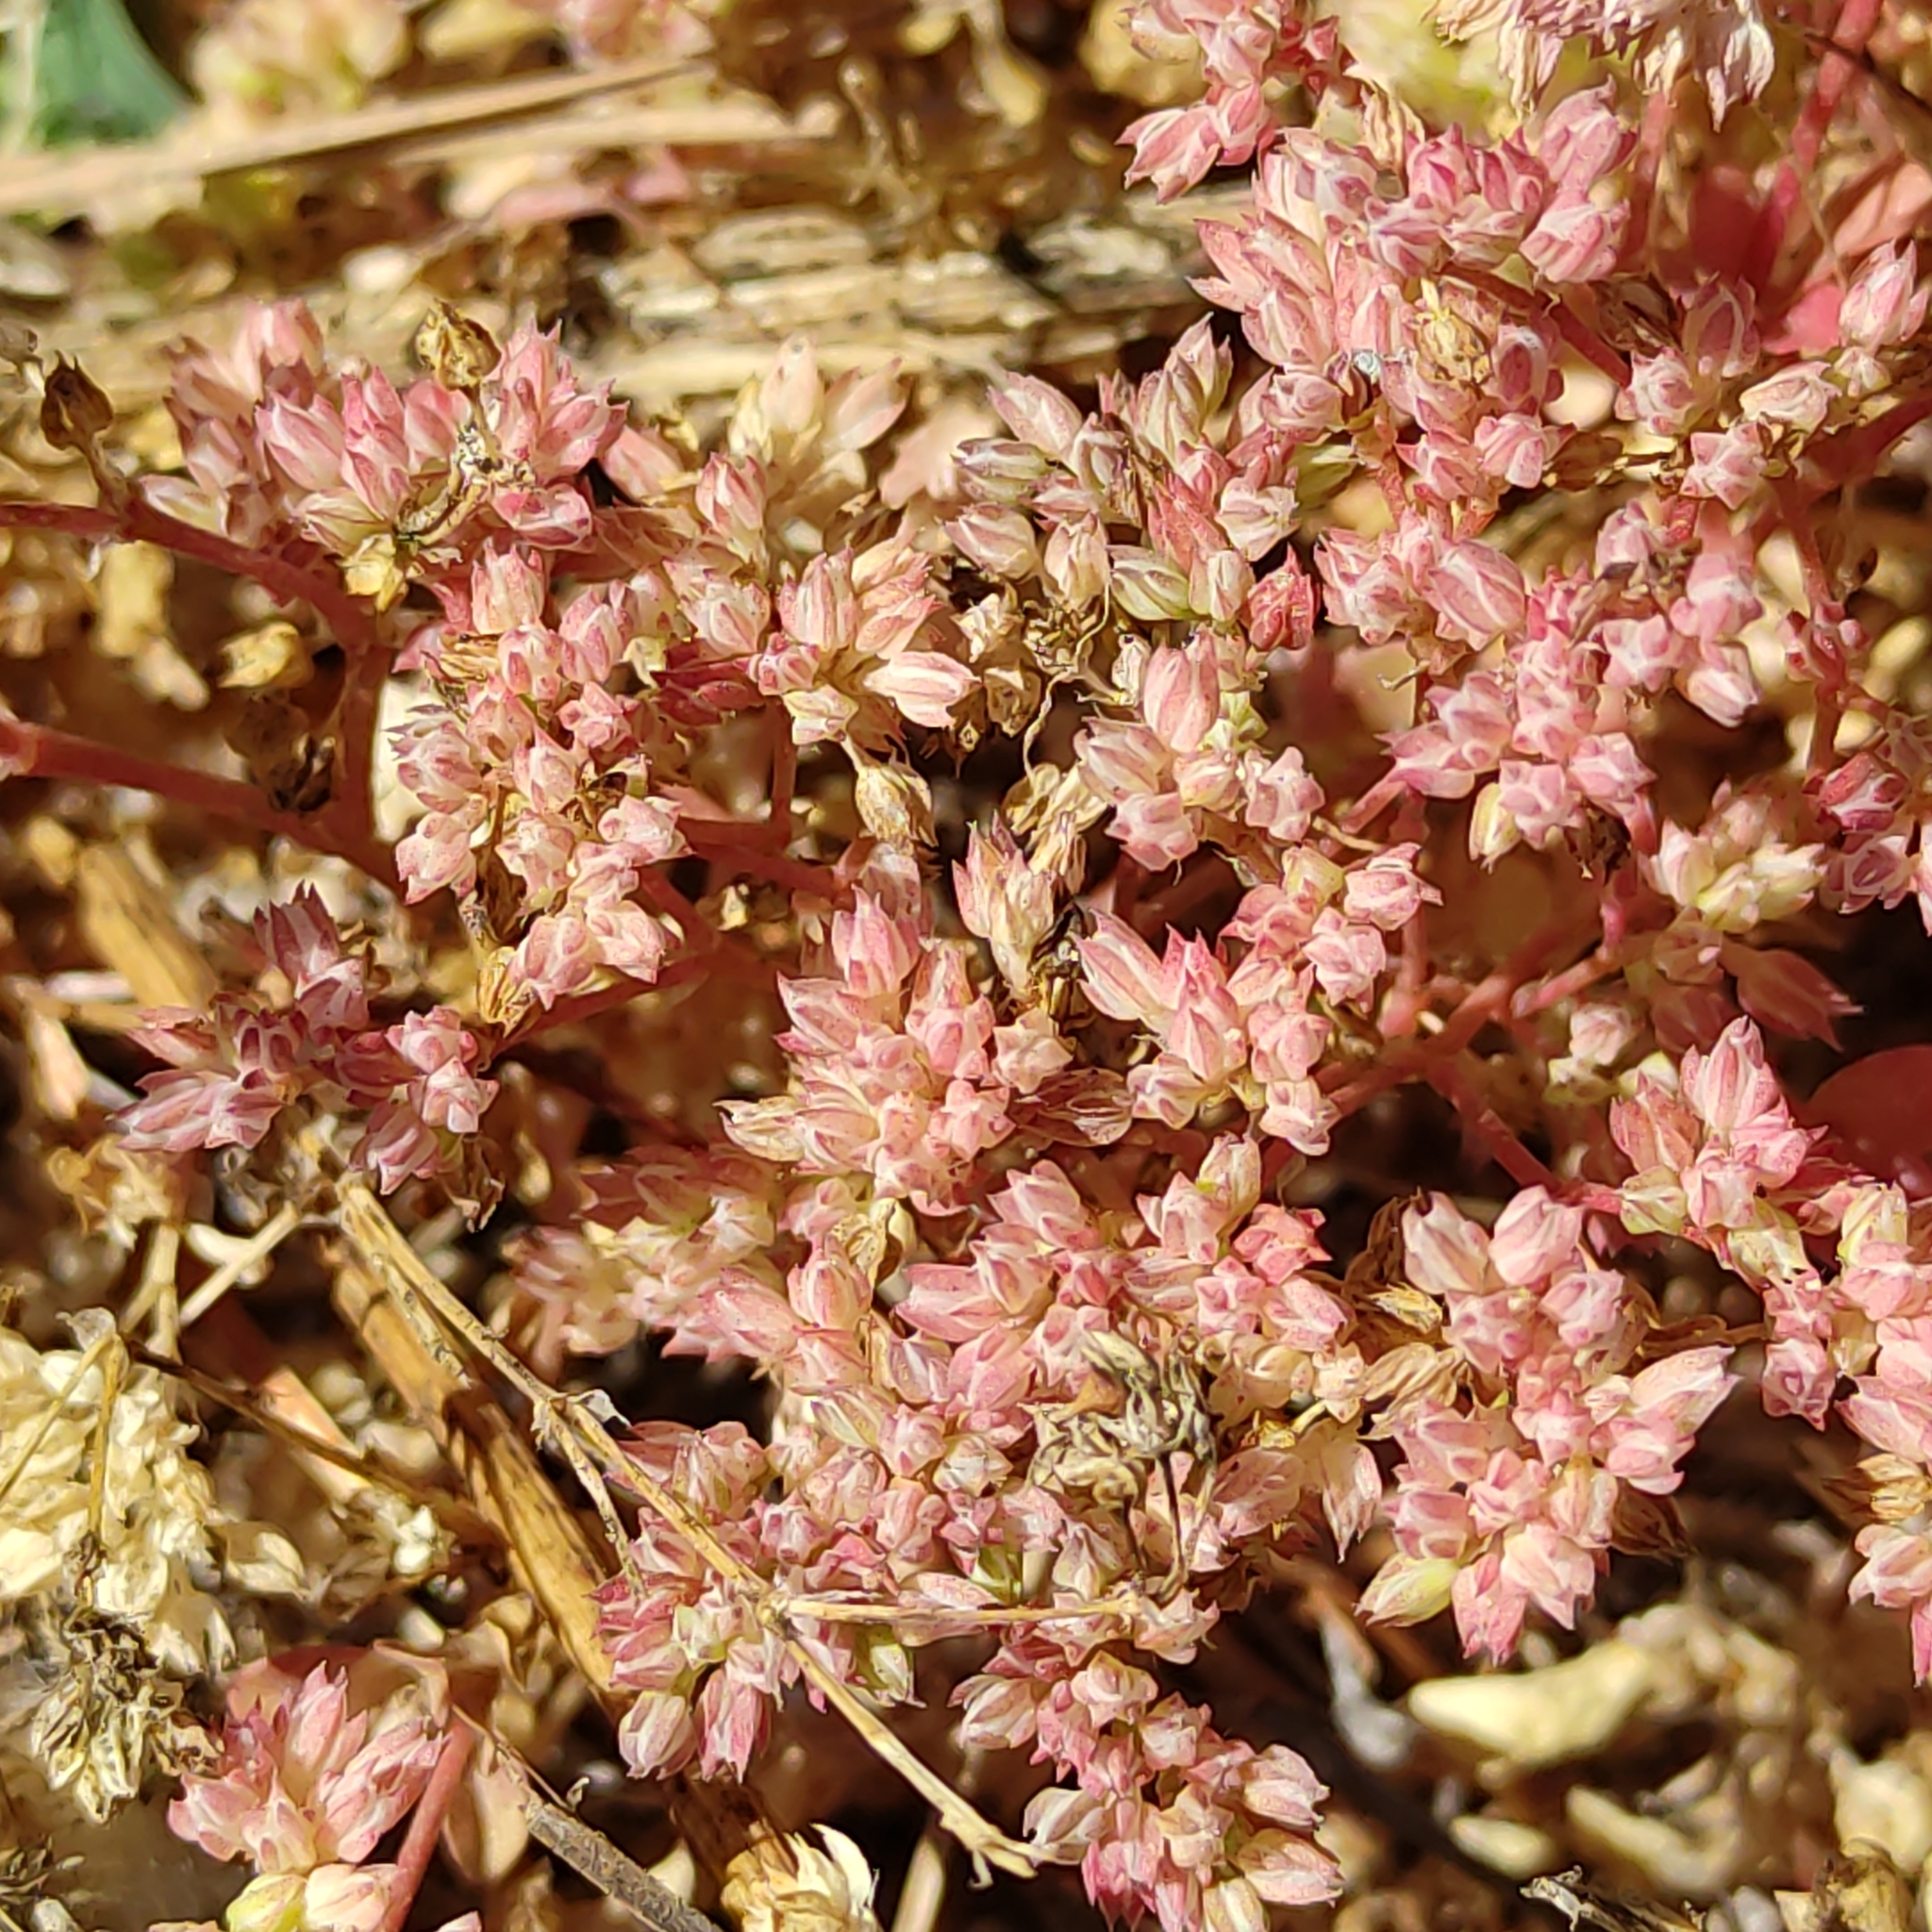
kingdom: Plantae
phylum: Tracheophyta
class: Magnoliopsida
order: Caryophyllales
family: Caryophyllaceae
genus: Polycarpon
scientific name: Polycarpon tetraphyllum
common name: Four-leaved all-seed
